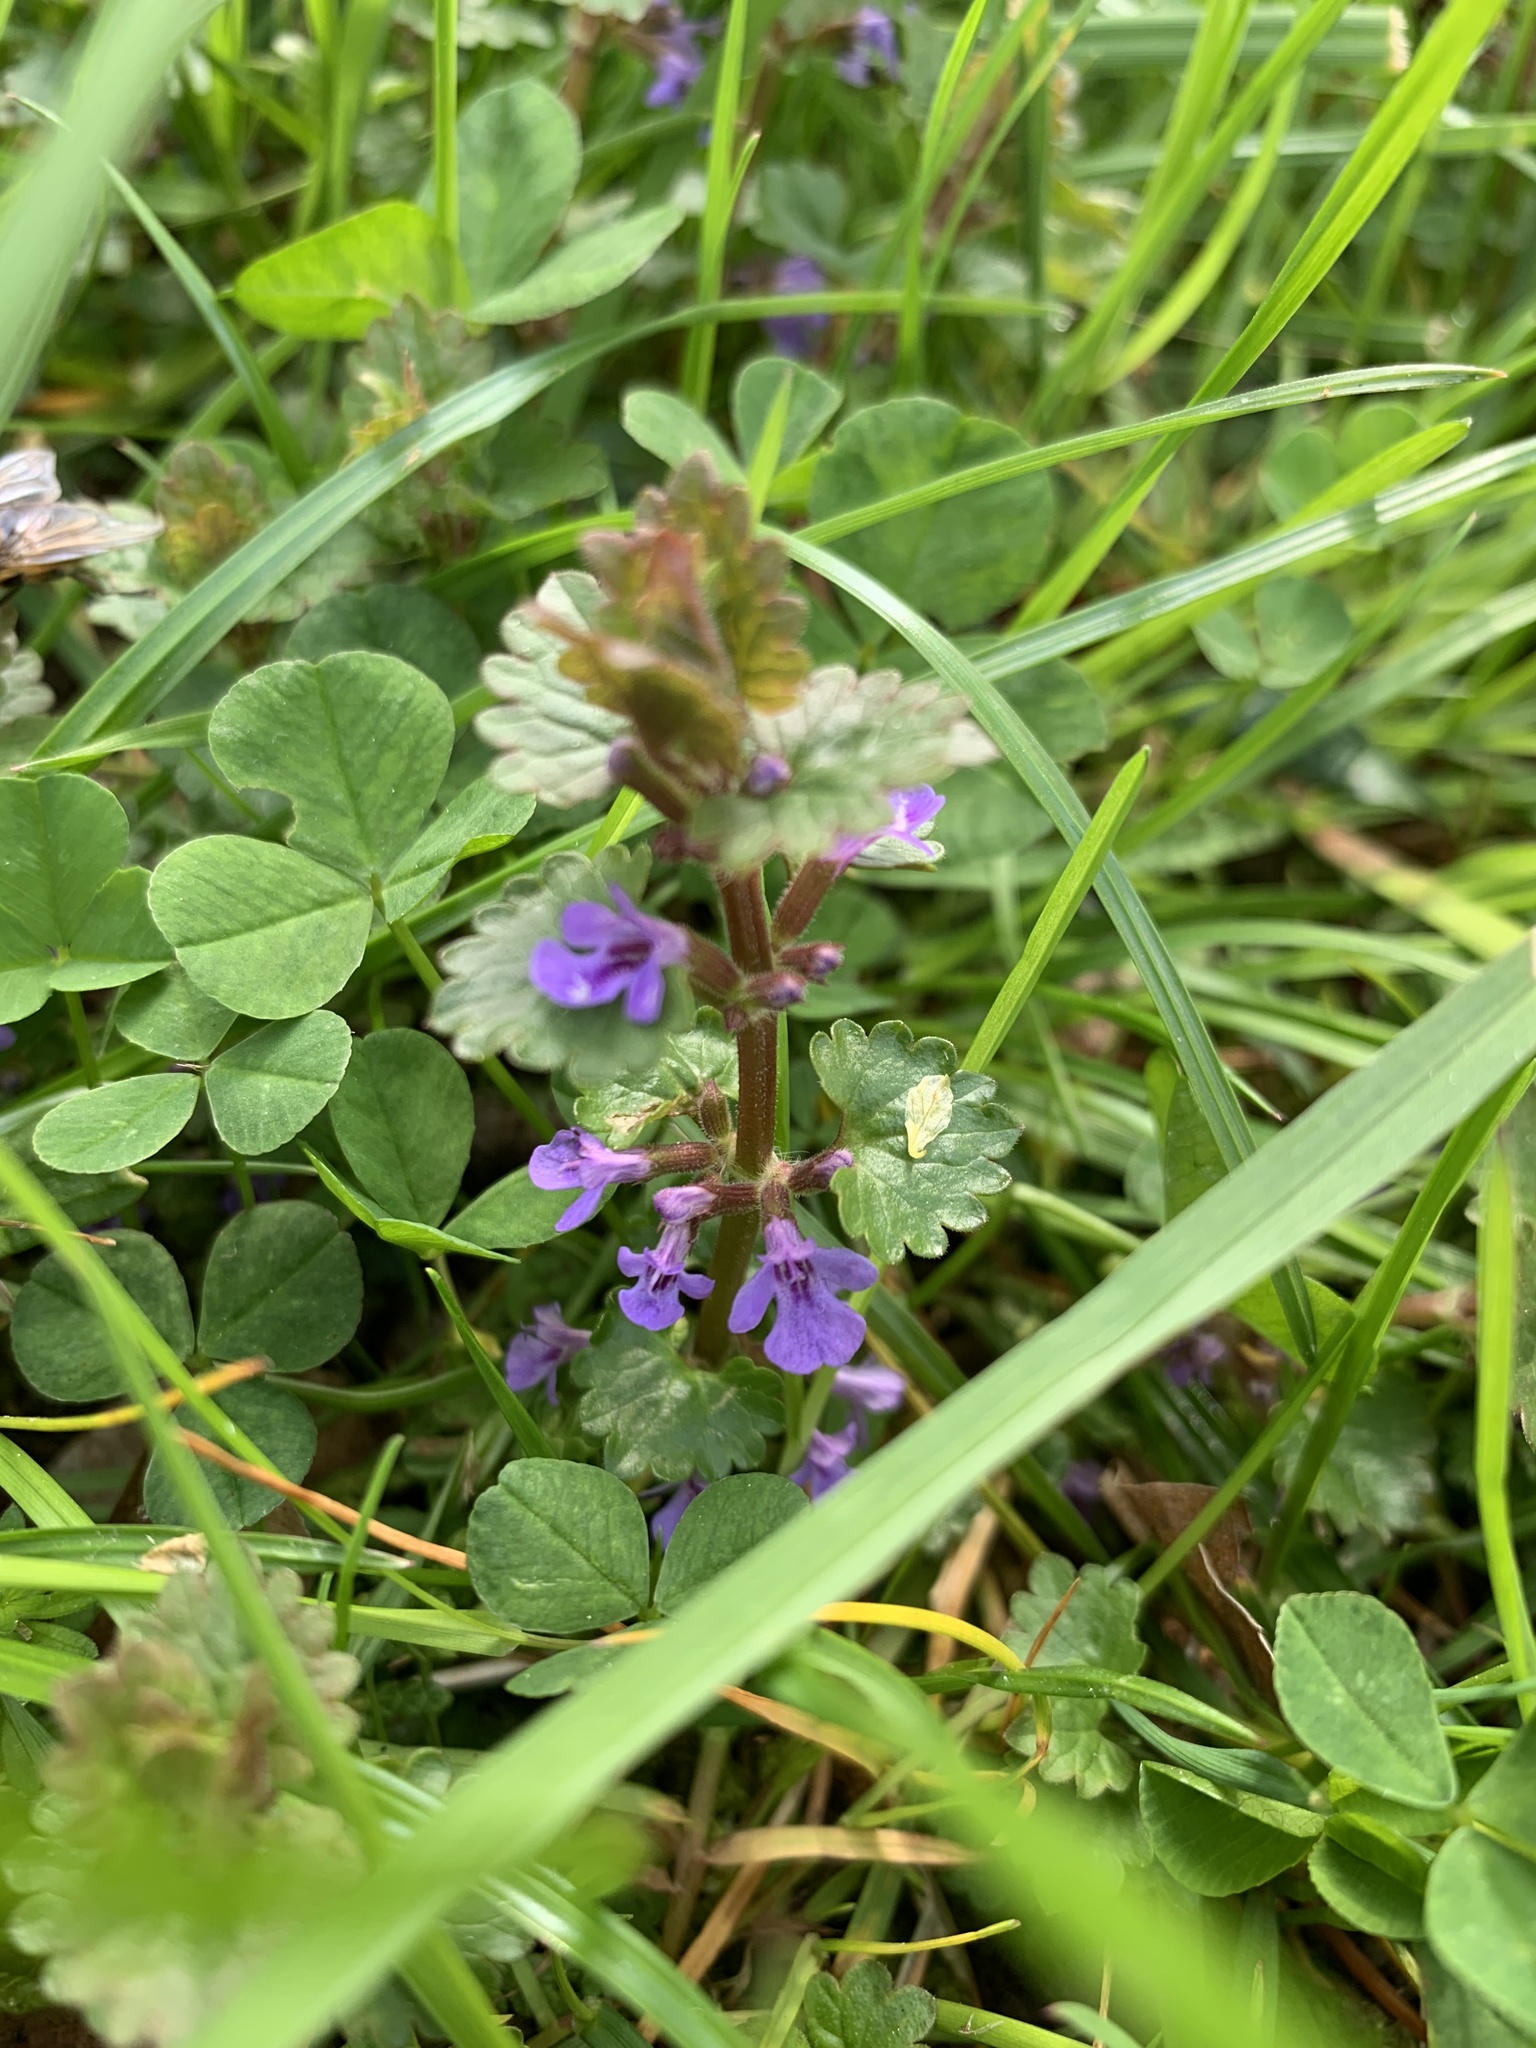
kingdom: Plantae
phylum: Tracheophyta
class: Magnoliopsida
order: Lamiales
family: Lamiaceae
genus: Glechoma
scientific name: Glechoma hederacea
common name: Ground ivy
